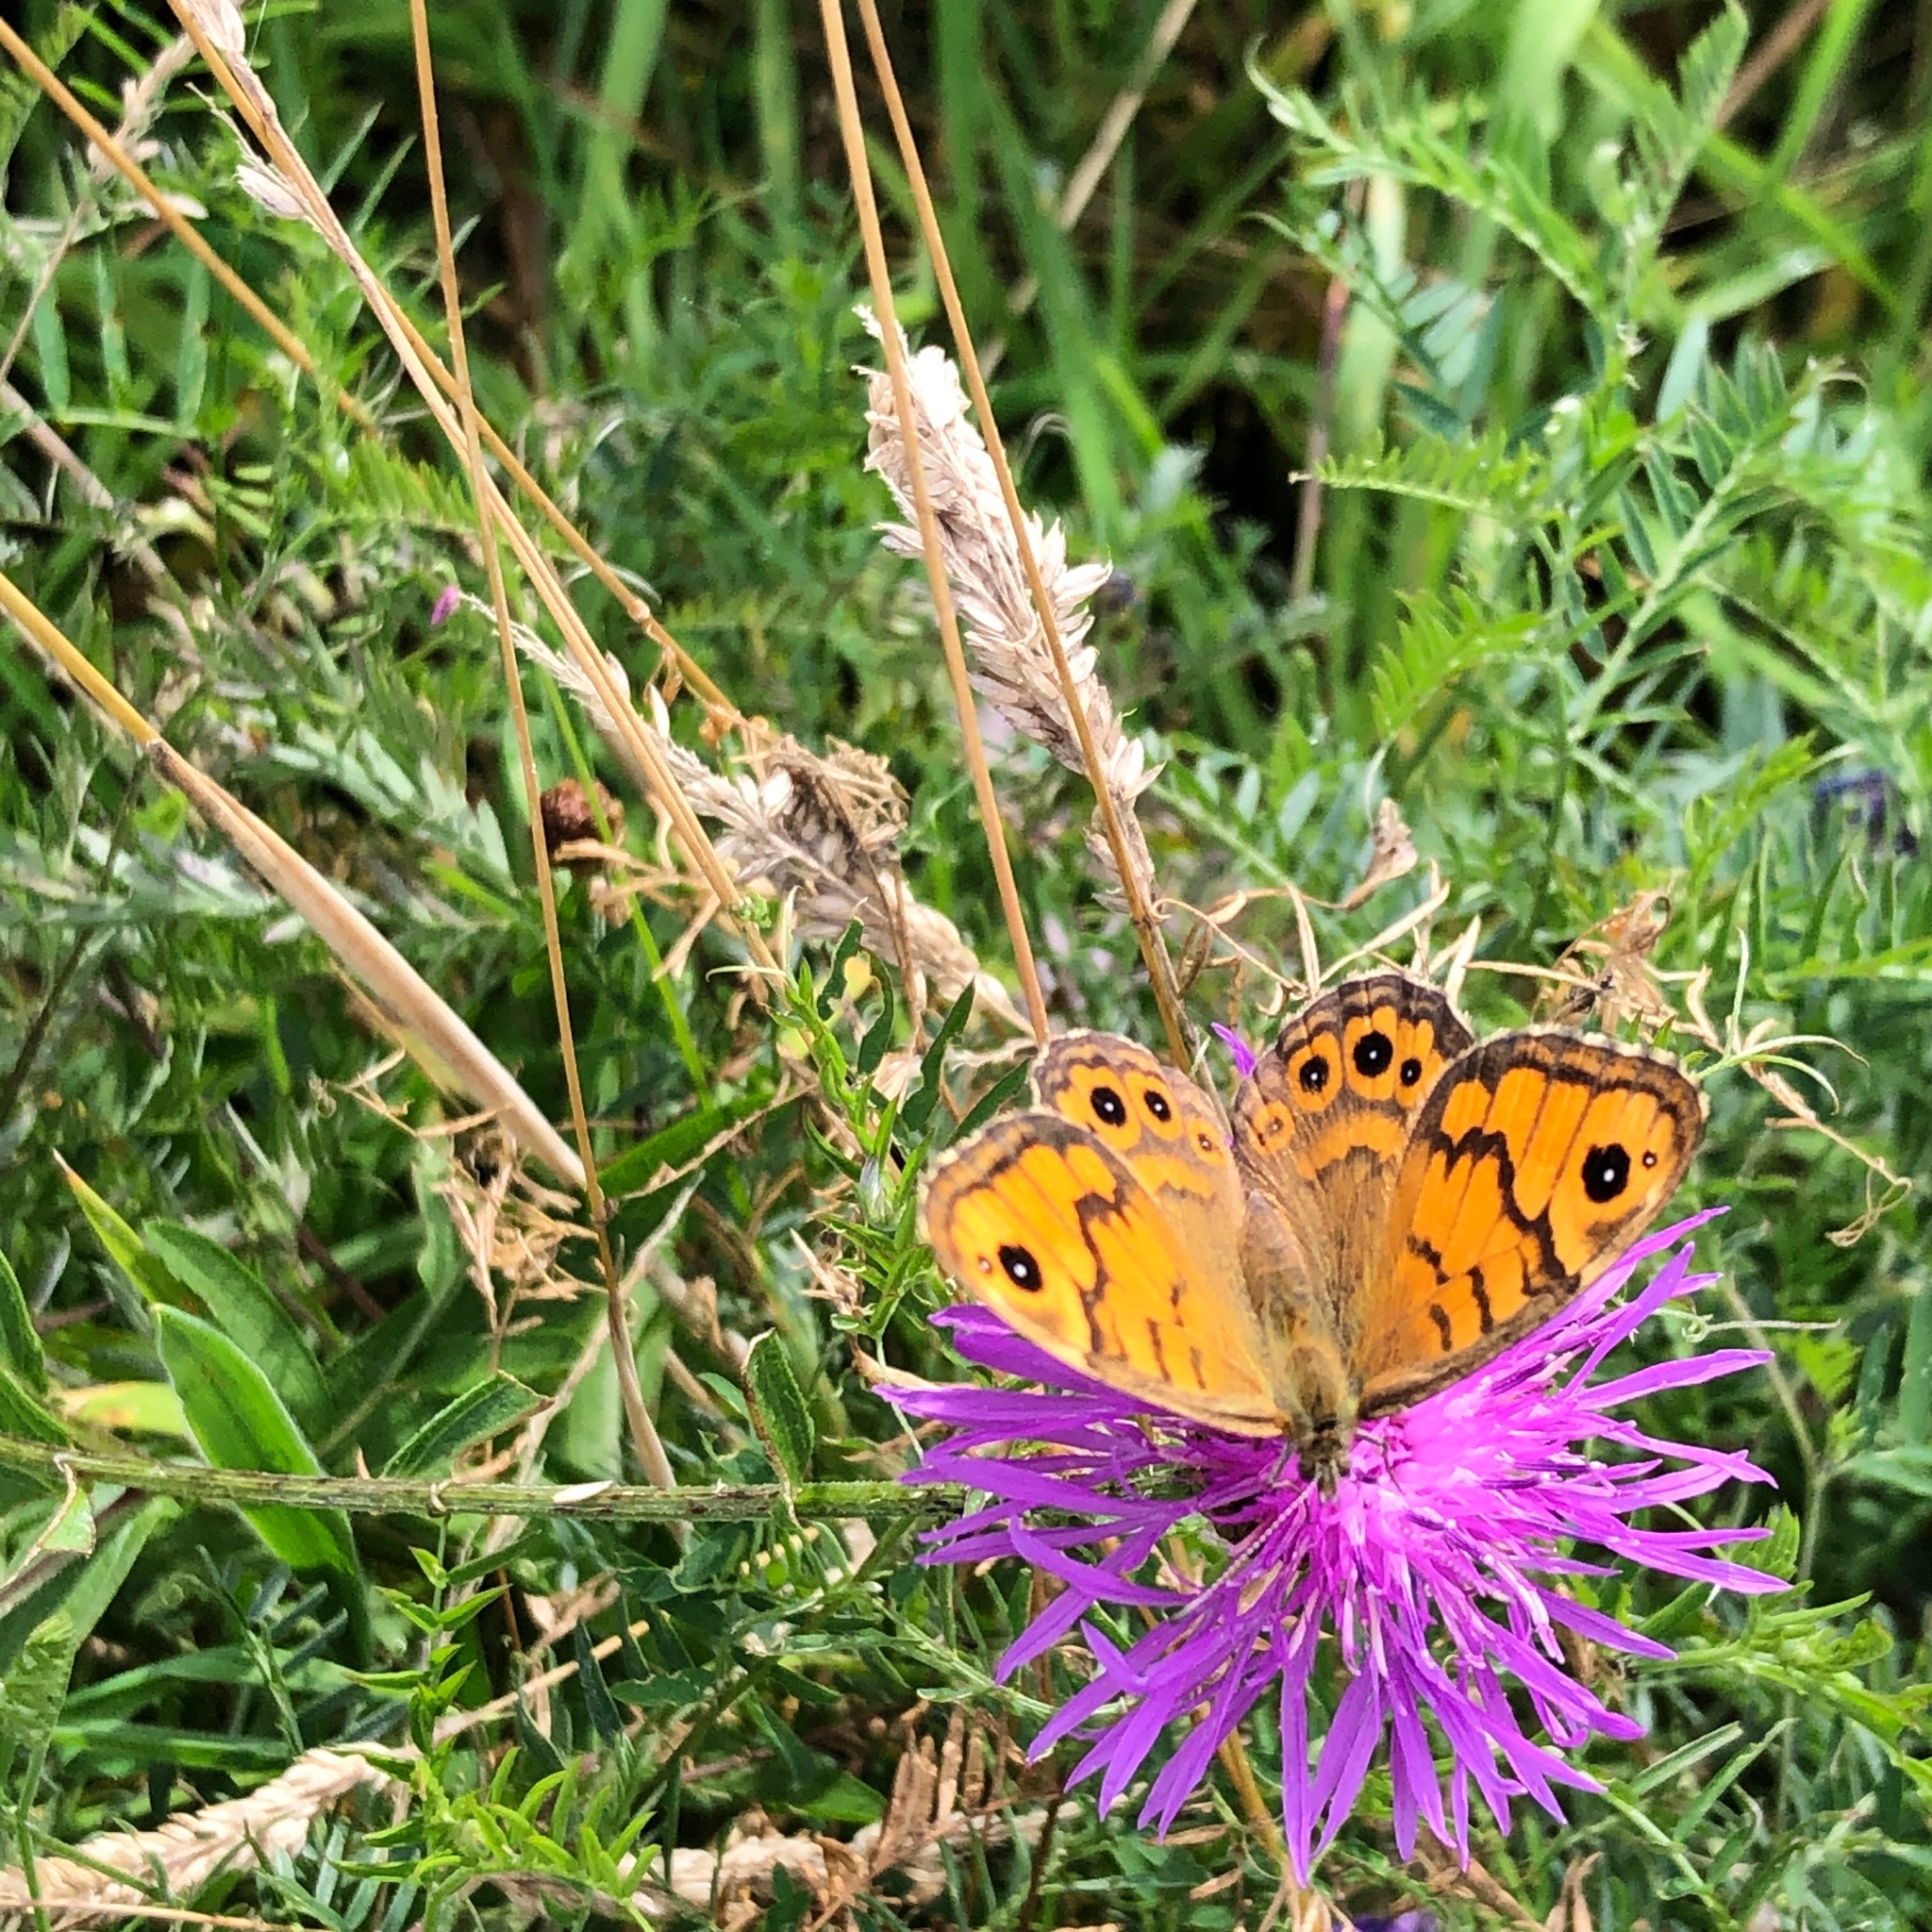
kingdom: Animalia
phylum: Arthropoda
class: Insecta
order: Lepidoptera
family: Nymphalidae
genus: Pararge
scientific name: Pararge Lasiommata megera
